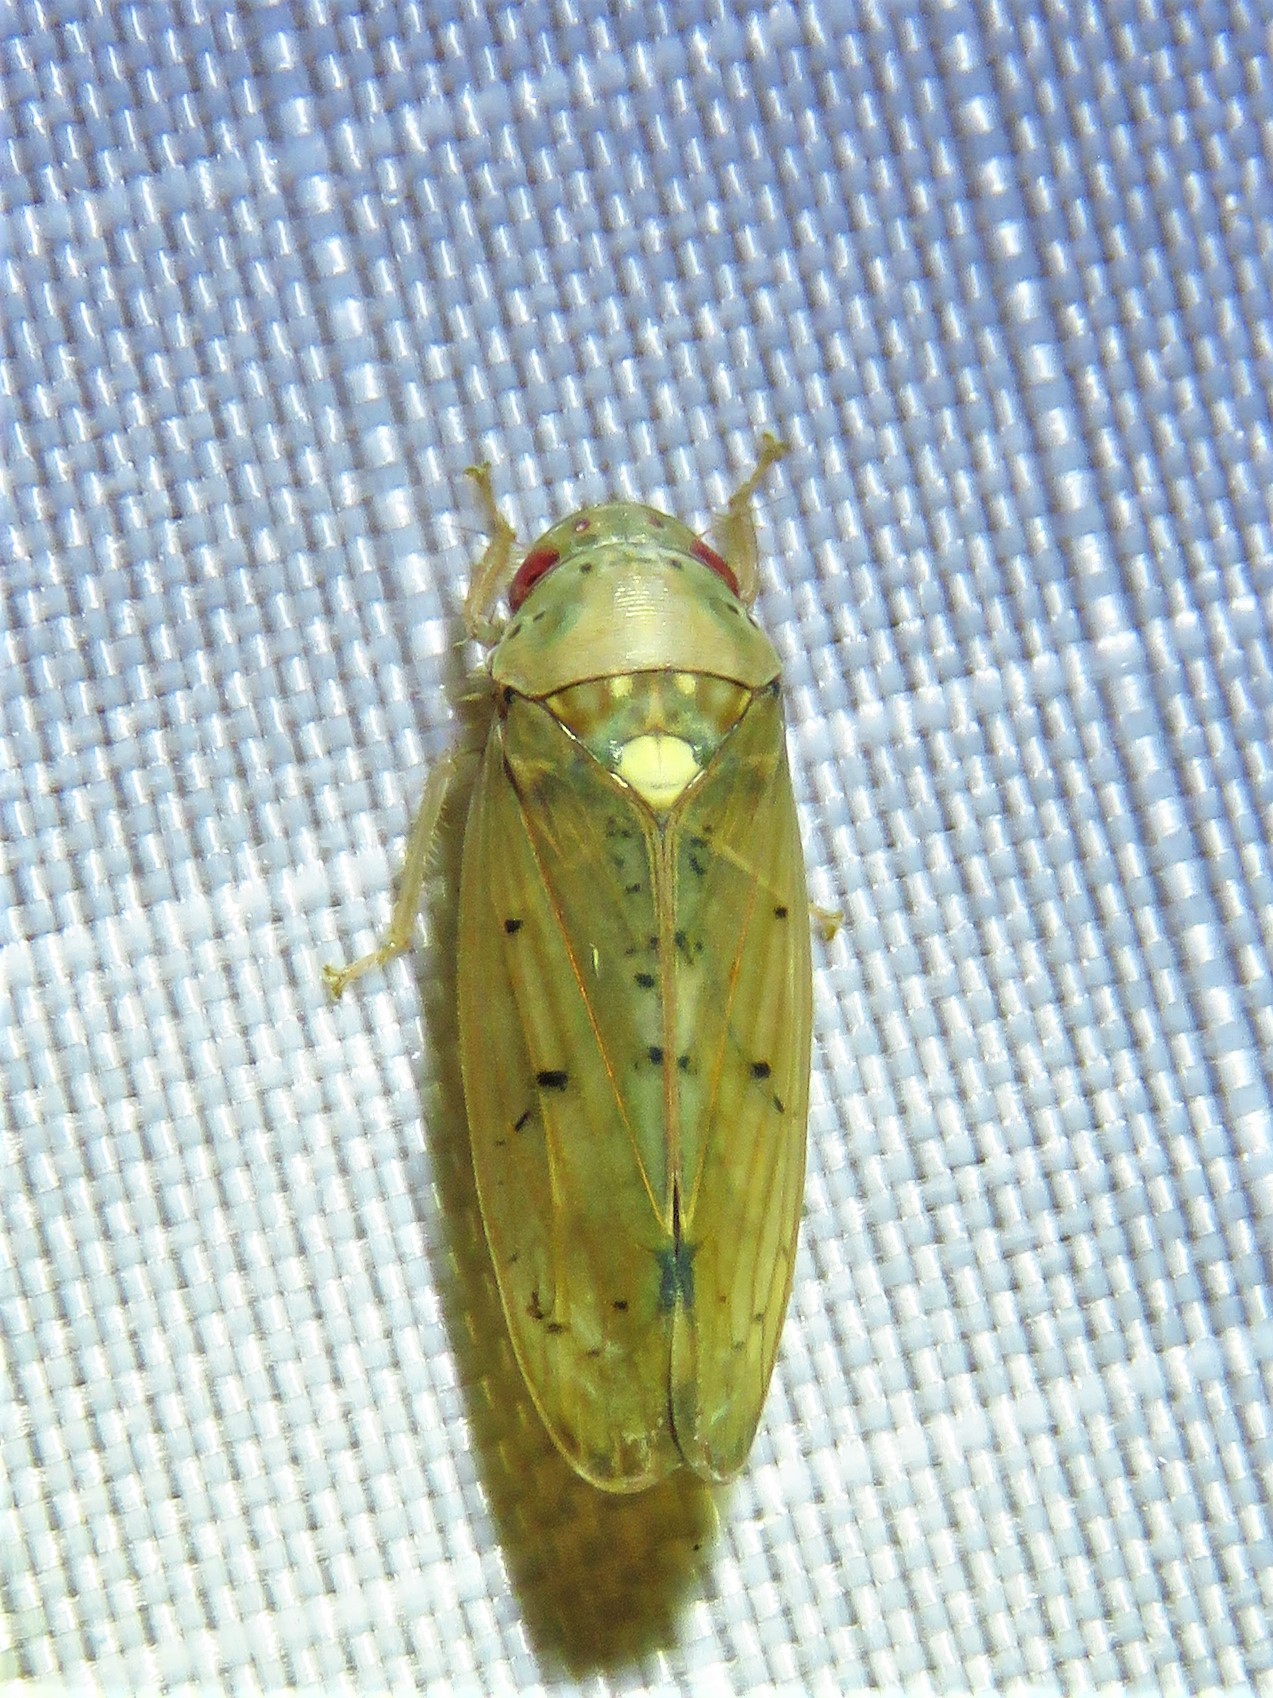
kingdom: Animalia
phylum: Arthropoda
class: Insecta
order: Hemiptera
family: Cicadellidae
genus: Ponana
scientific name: Ponana quadralaba
